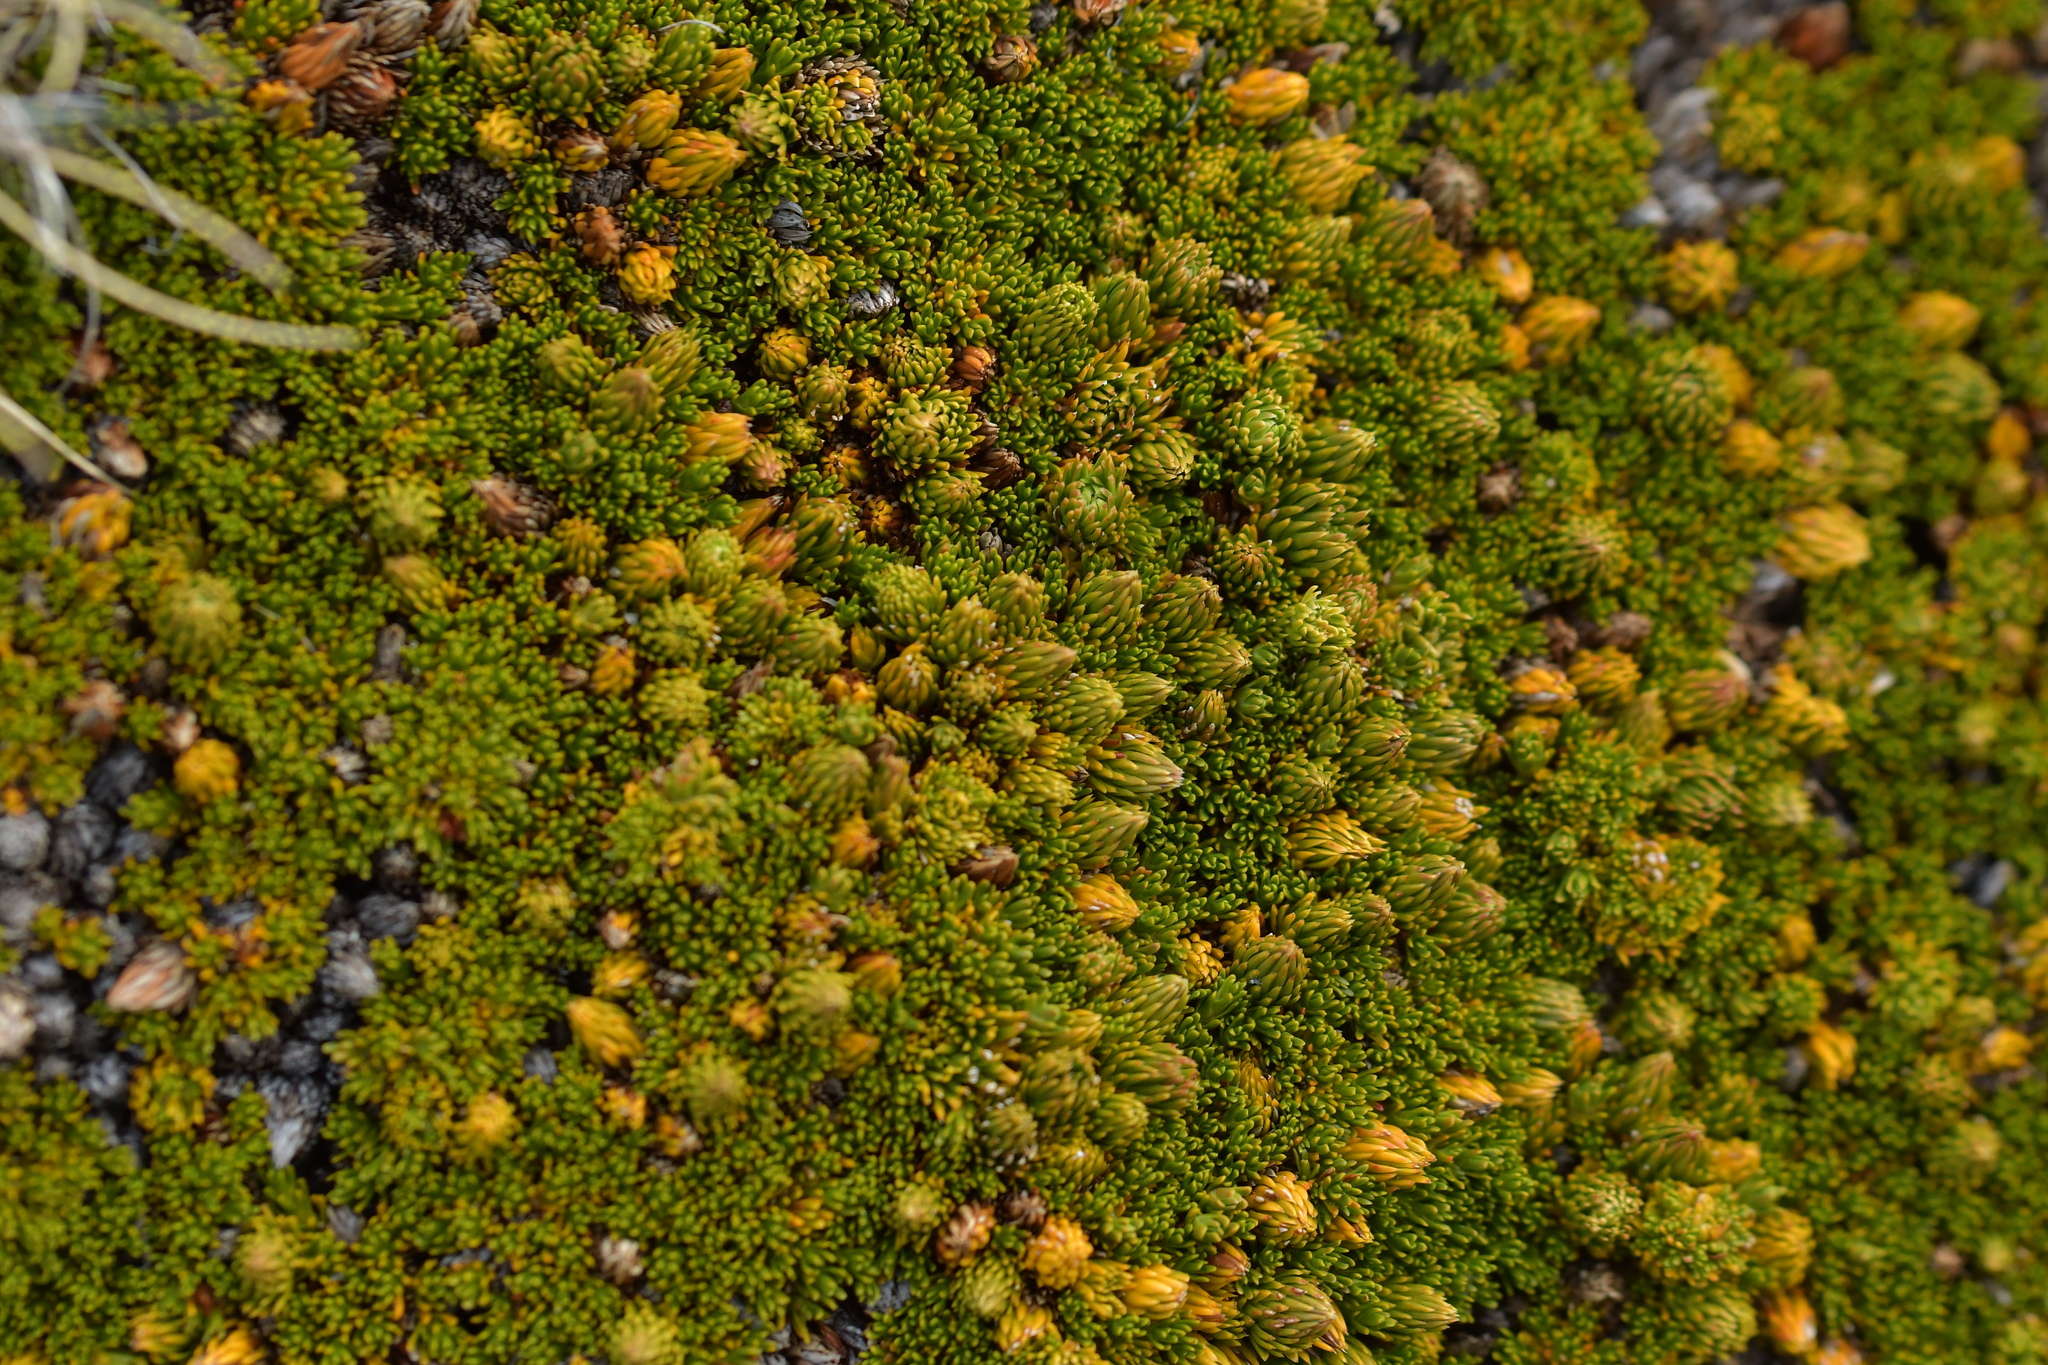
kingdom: Plantae
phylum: Tracheophyta
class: Magnoliopsida
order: Ericales
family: Ericaceae
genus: Dracophyllum
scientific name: Dracophyllum muscoides
